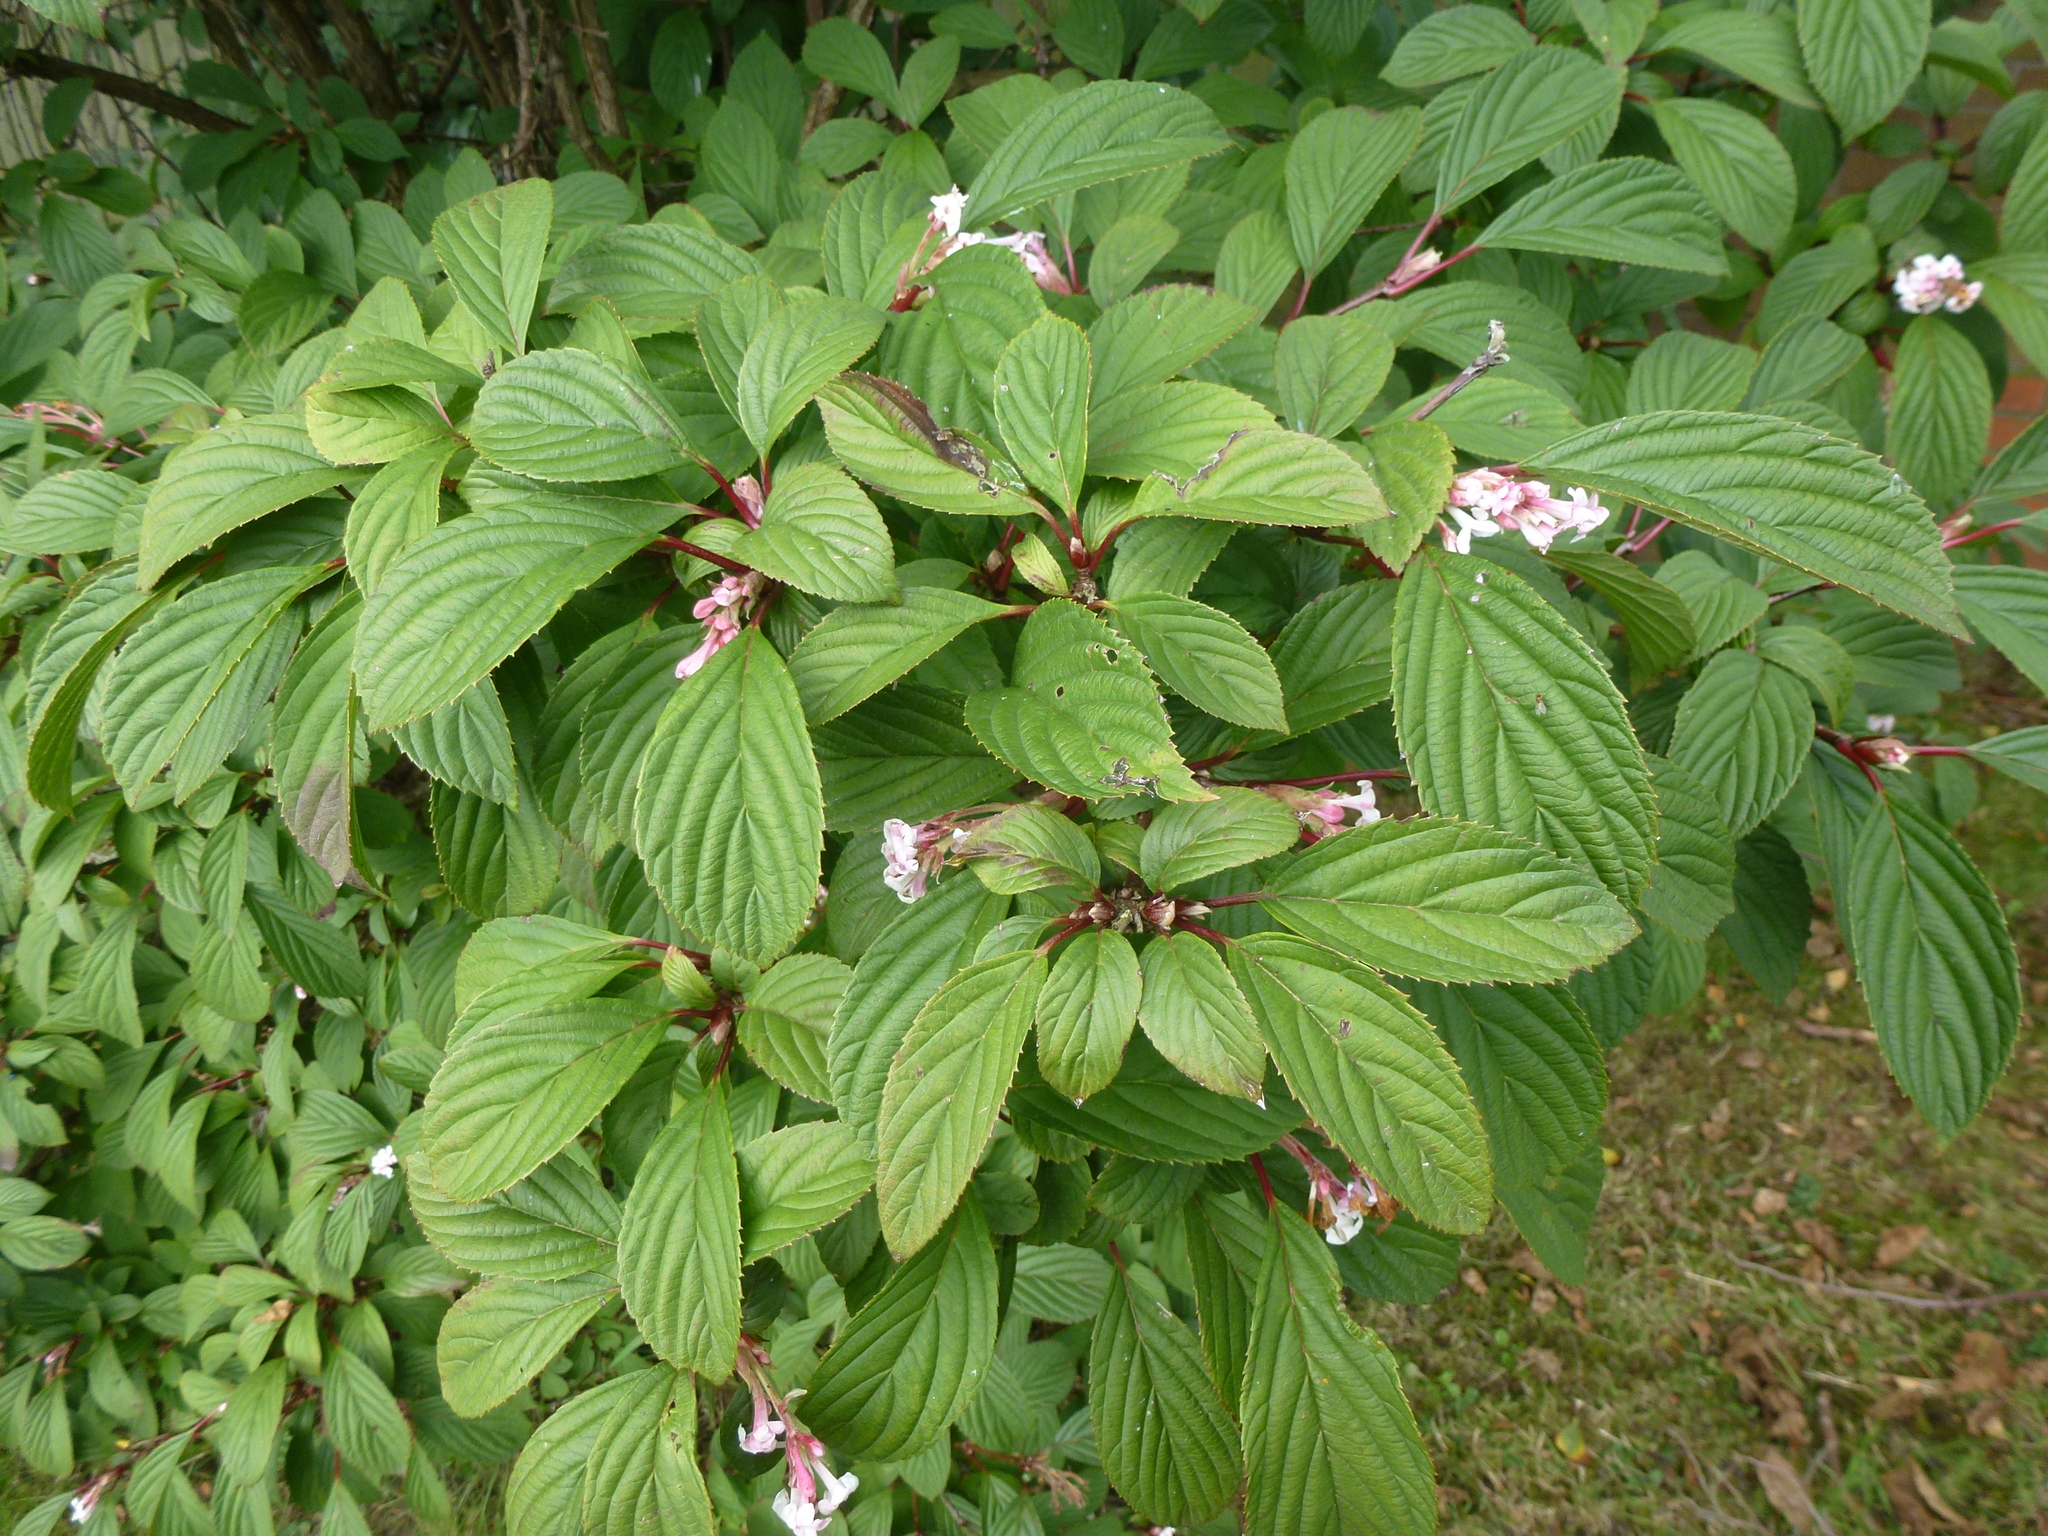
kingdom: Plantae
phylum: Tracheophyta
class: Magnoliopsida
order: Cornales
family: Cornaceae
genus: Cornus
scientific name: Cornus sericea
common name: Red-osier dogwood
